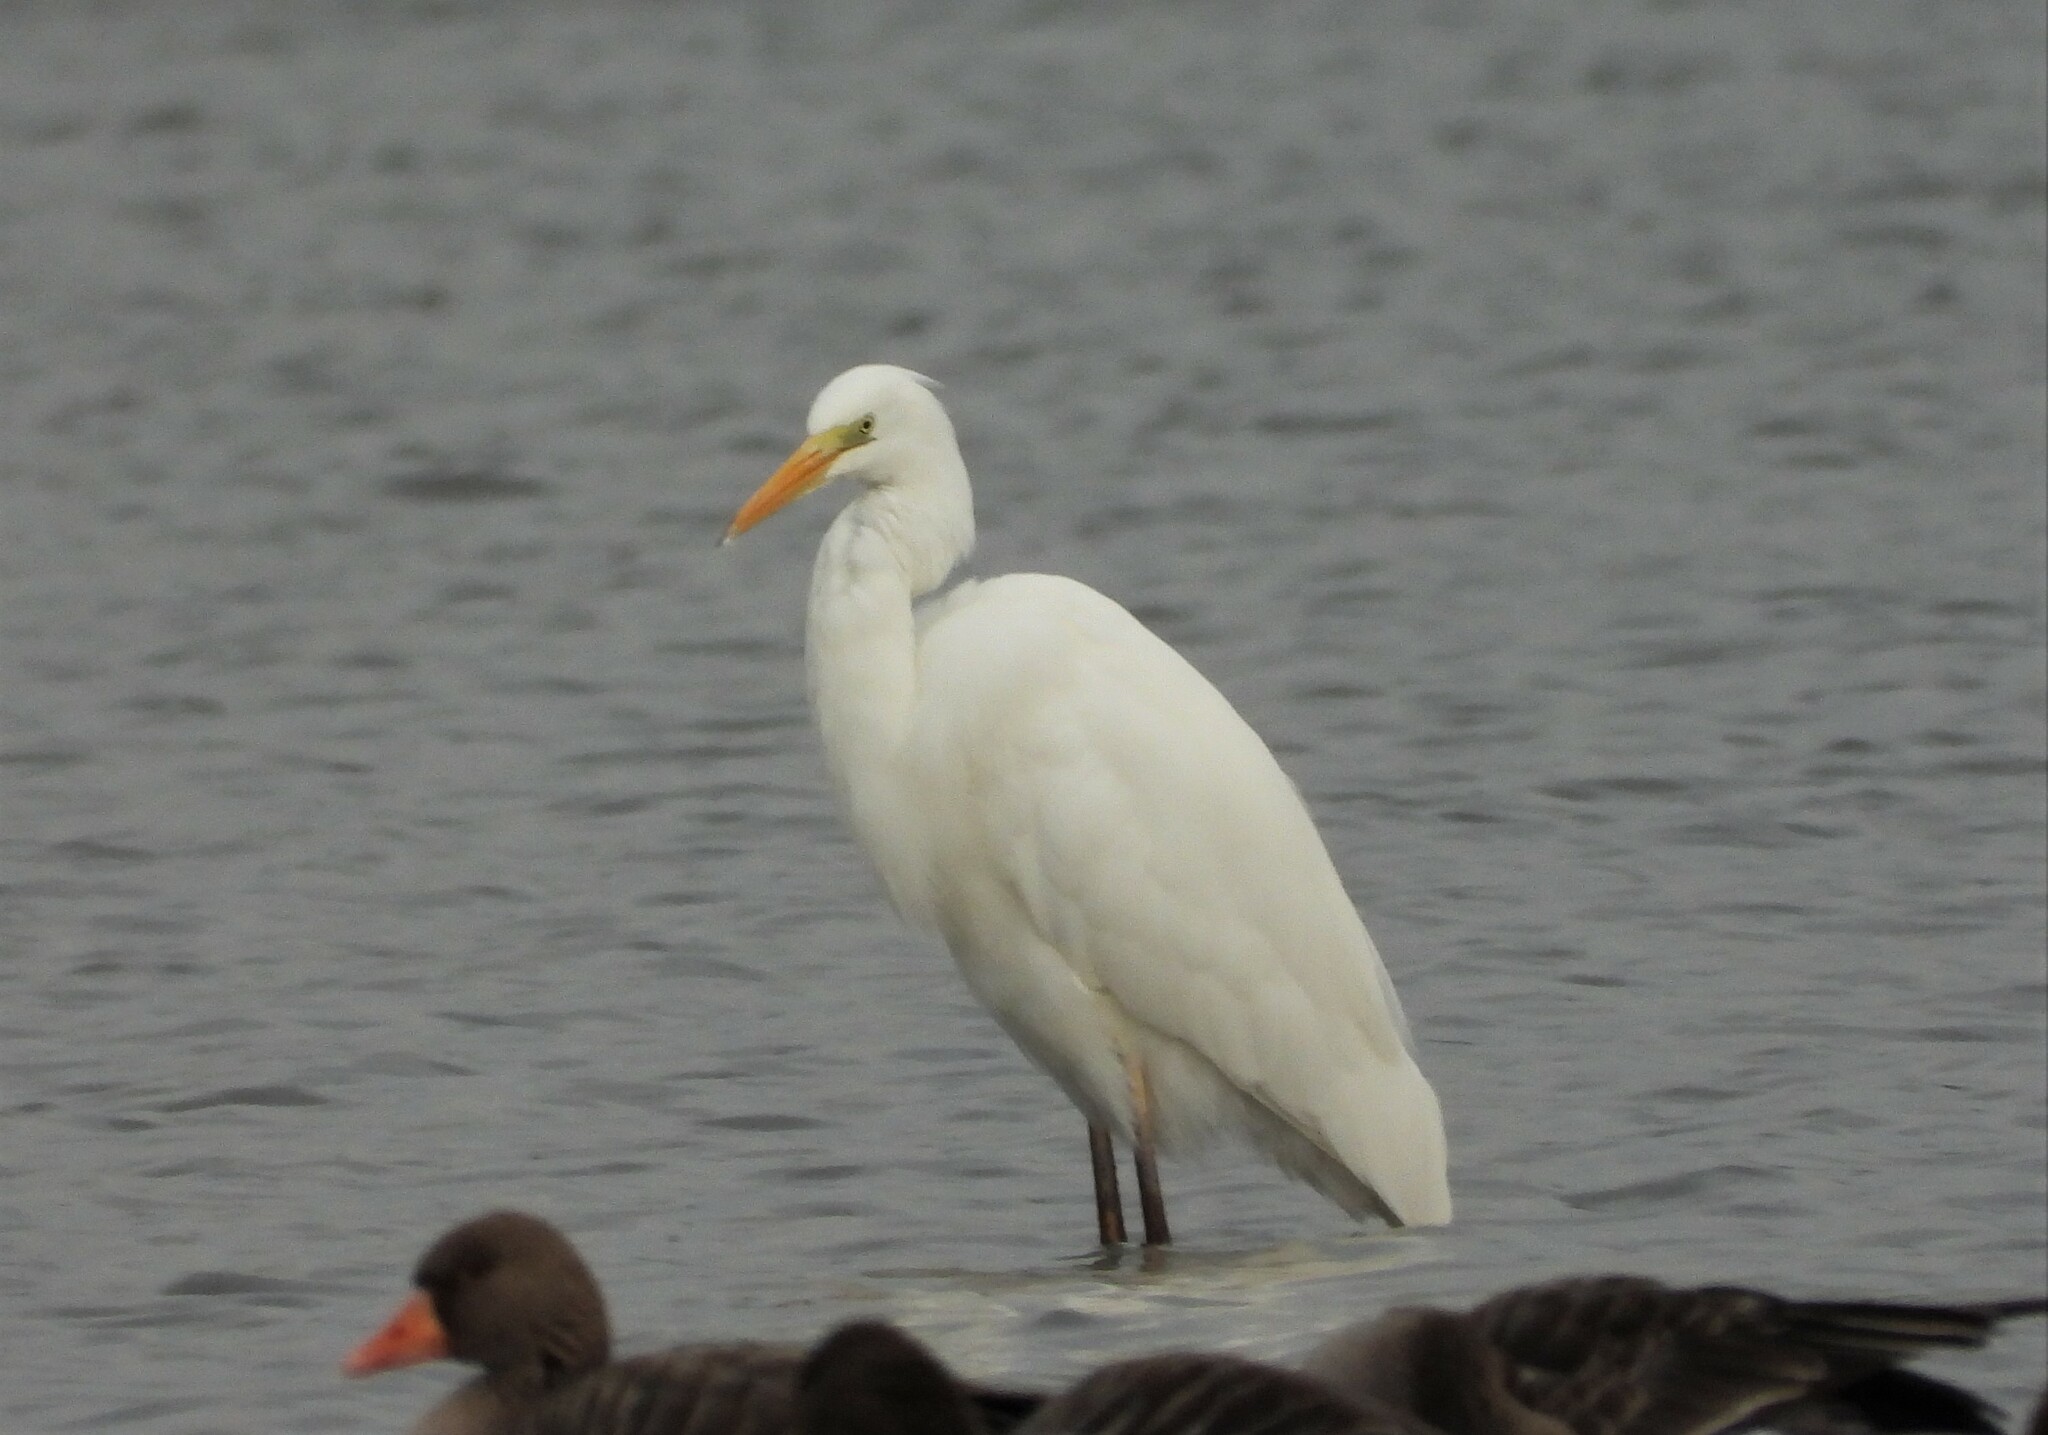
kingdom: Animalia
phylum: Chordata
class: Aves
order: Pelecaniformes
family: Ardeidae
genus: Ardea
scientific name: Ardea alba
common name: Great egret
